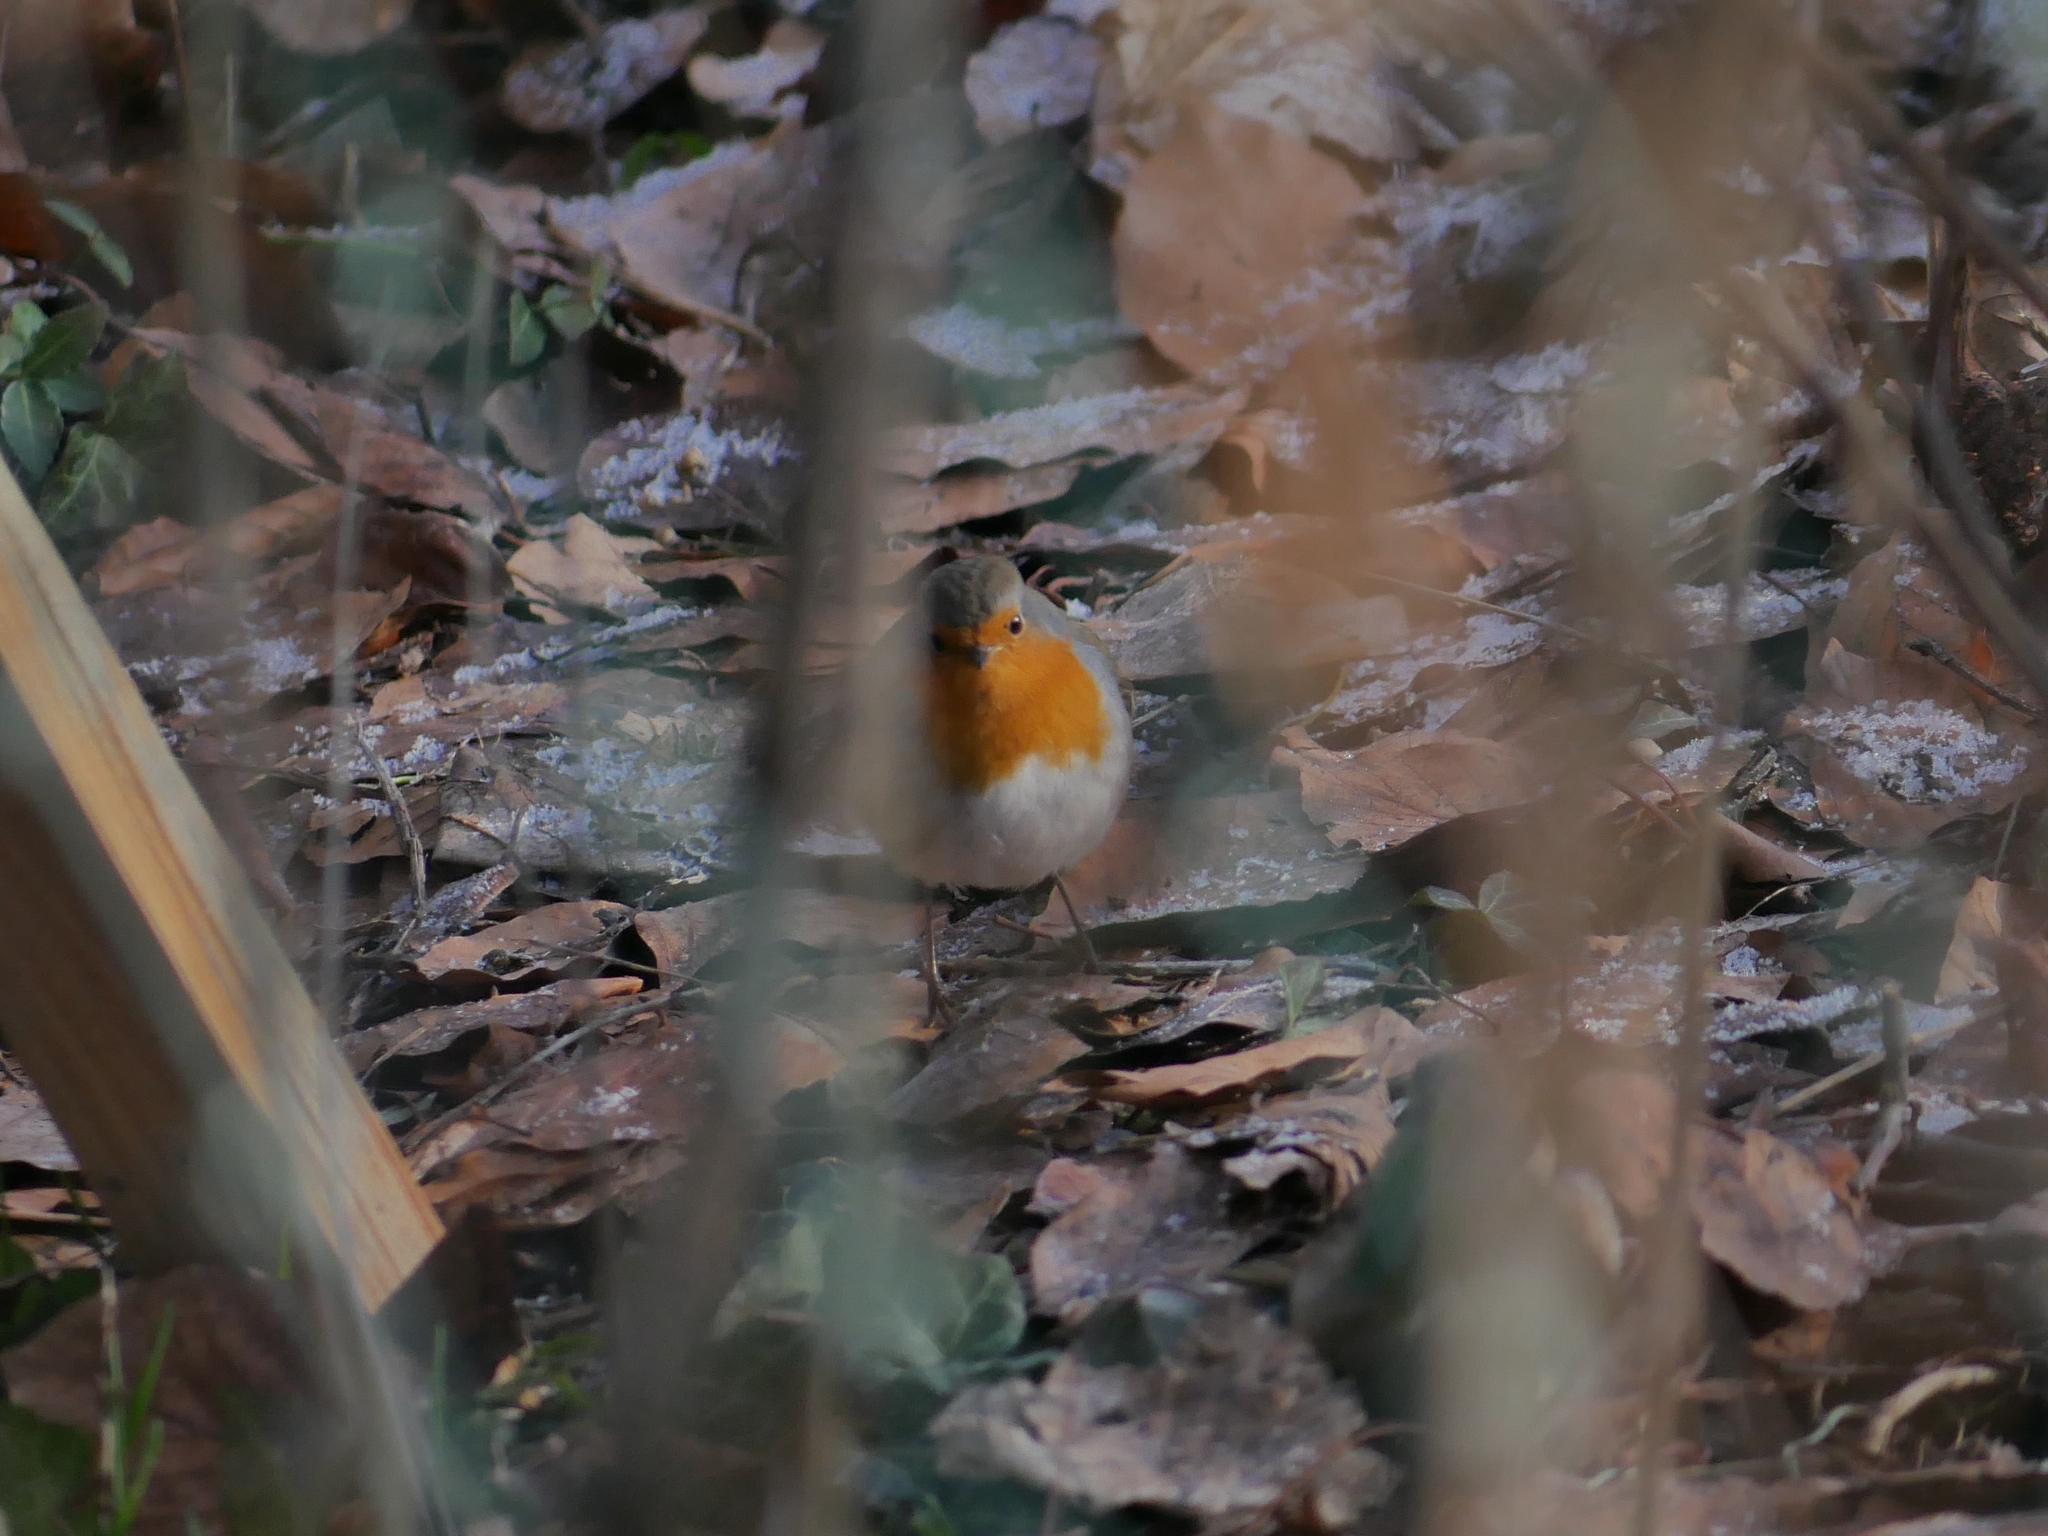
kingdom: Animalia
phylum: Chordata
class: Aves
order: Passeriformes
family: Muscicapidae
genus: Erithacus
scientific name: Erithacus rubecula
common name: European robin
